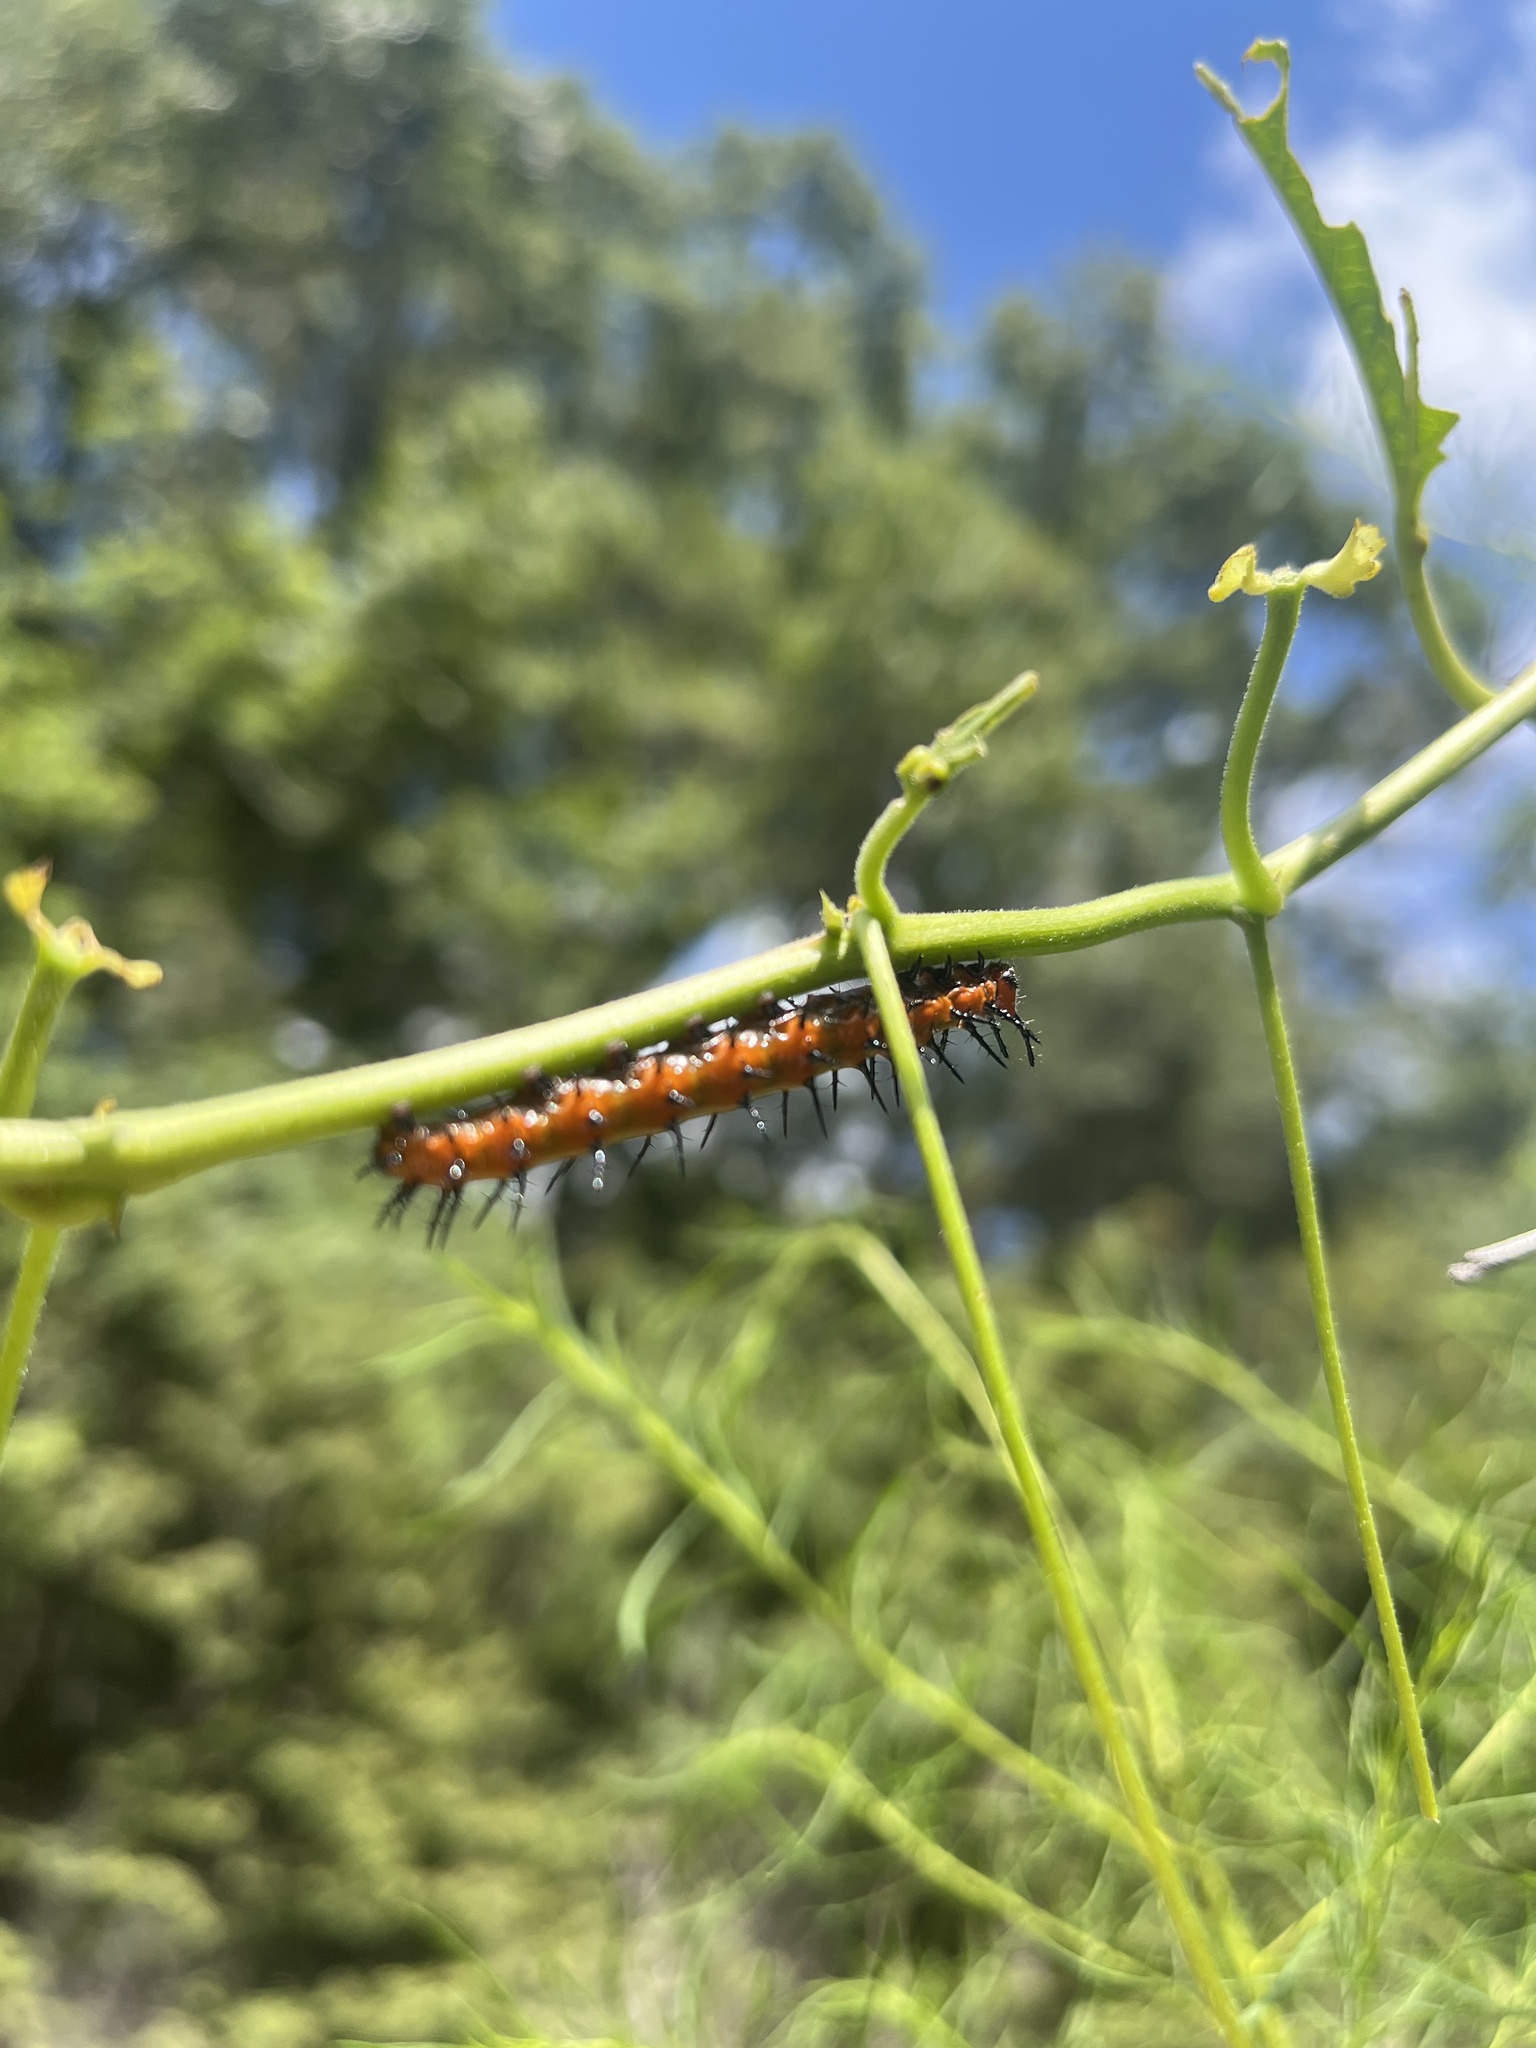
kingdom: Animalia
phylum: Arthropoda
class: Insecta
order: Lepidoptera
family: Nymphalidae
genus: Dione
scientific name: Dione vanillae
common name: Gulf fritillary
